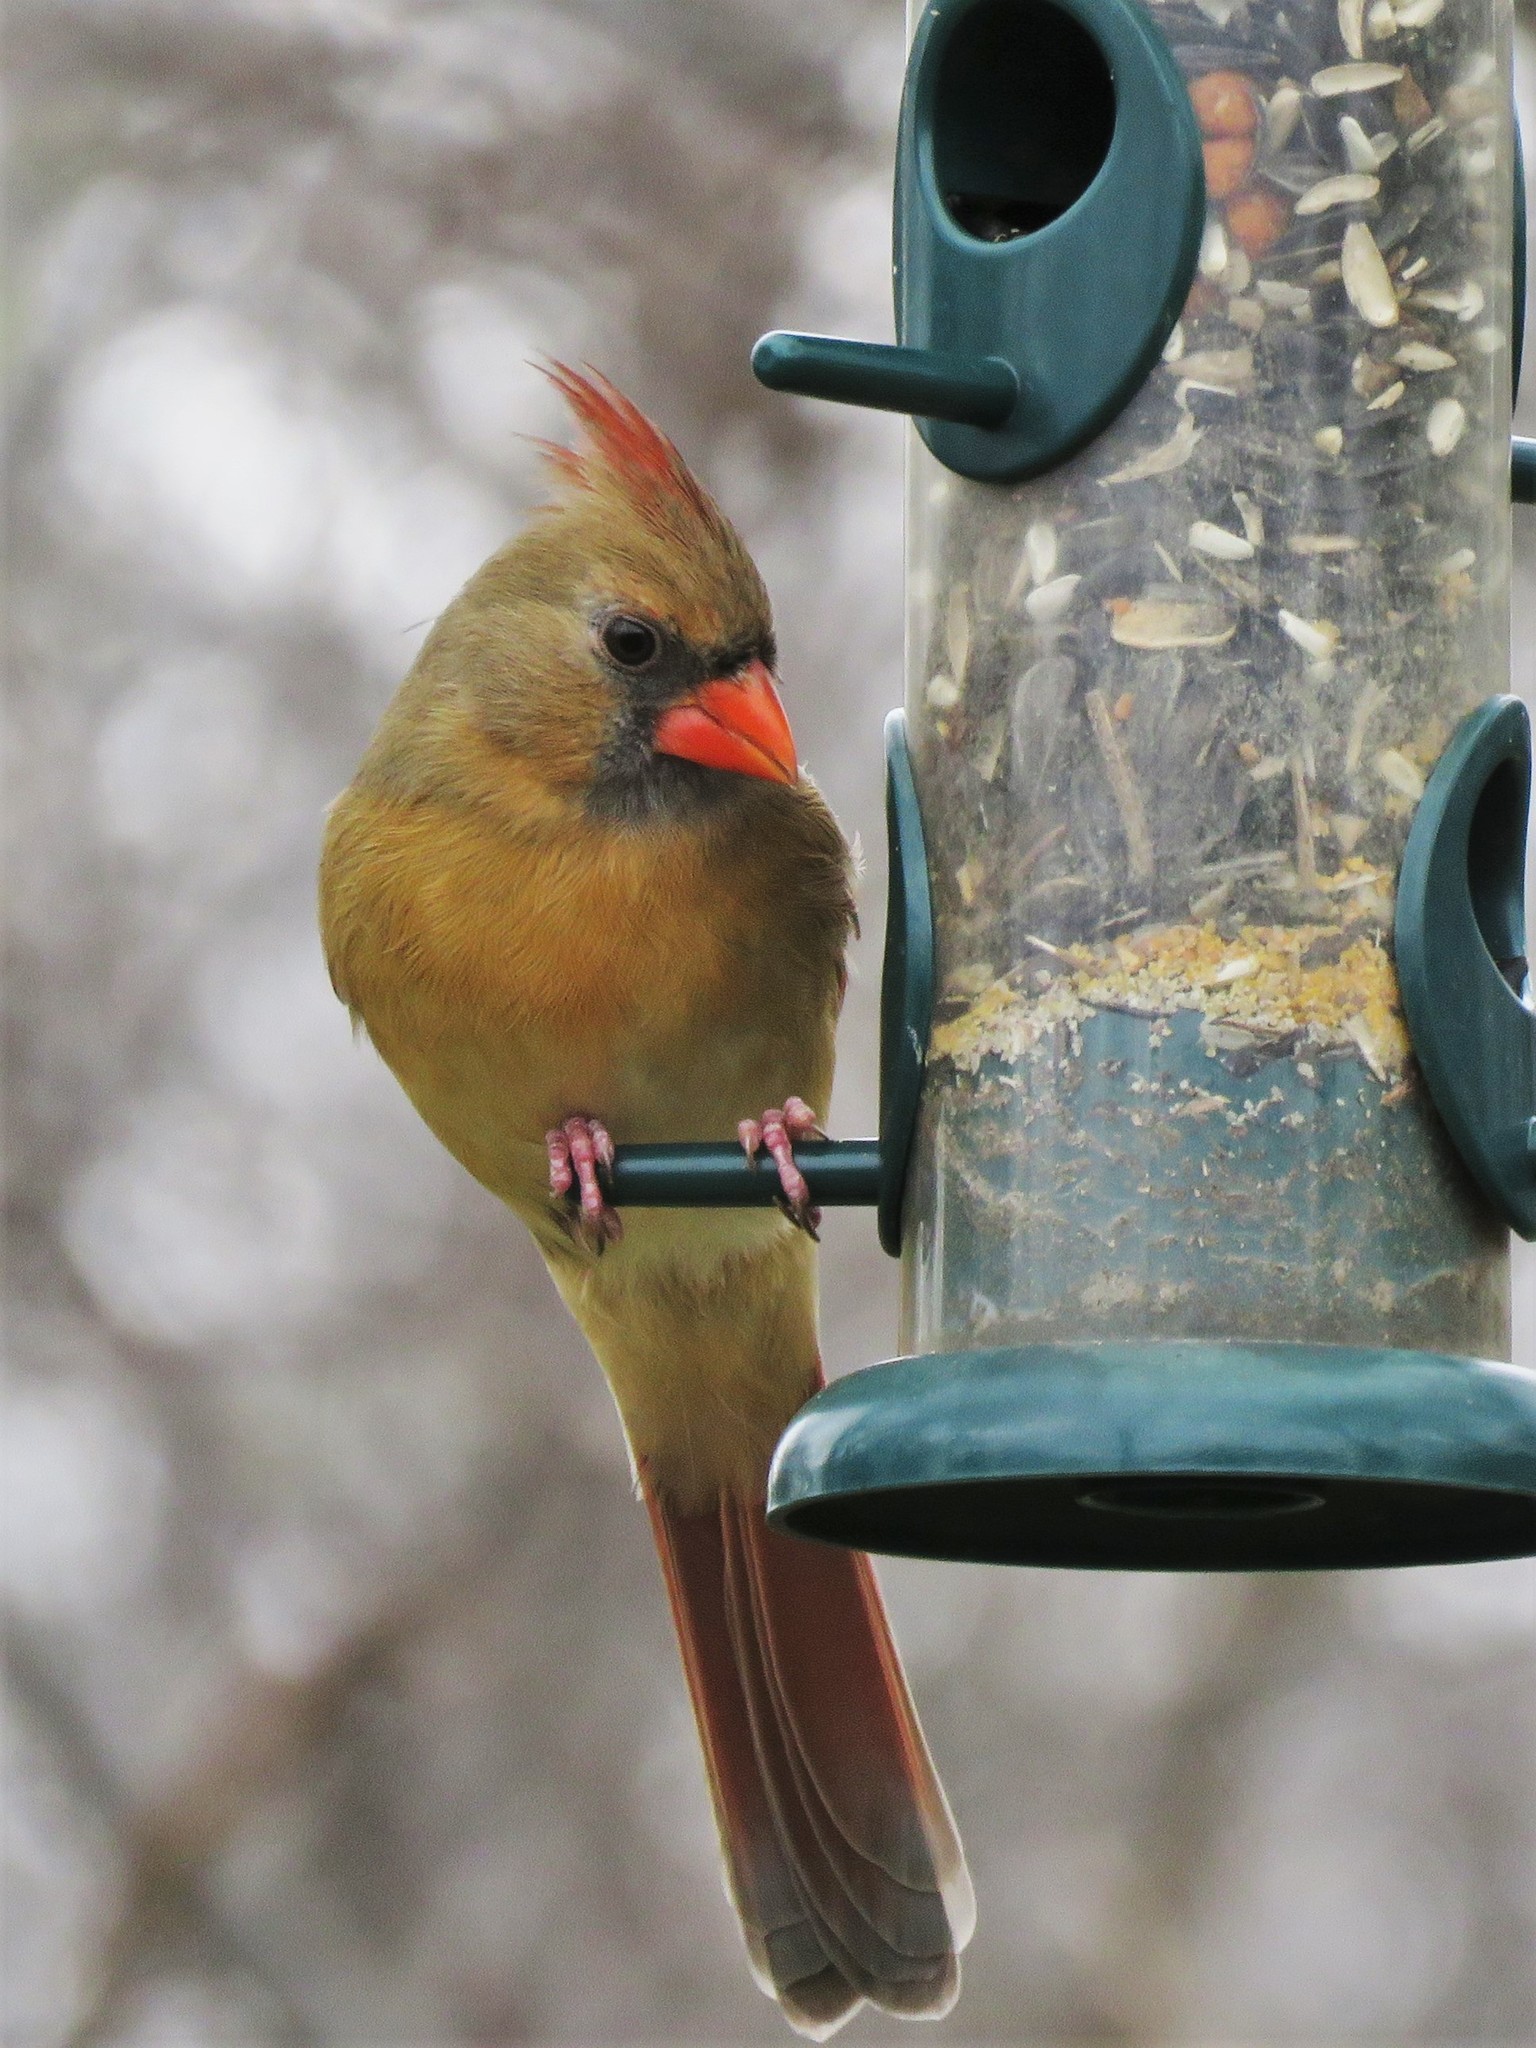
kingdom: Animalia
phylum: Chordata
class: Aves
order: Passeriformes
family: Cardinalidae
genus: Cardinalis
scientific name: Cardinalis cardinalis
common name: Northern cardinal
